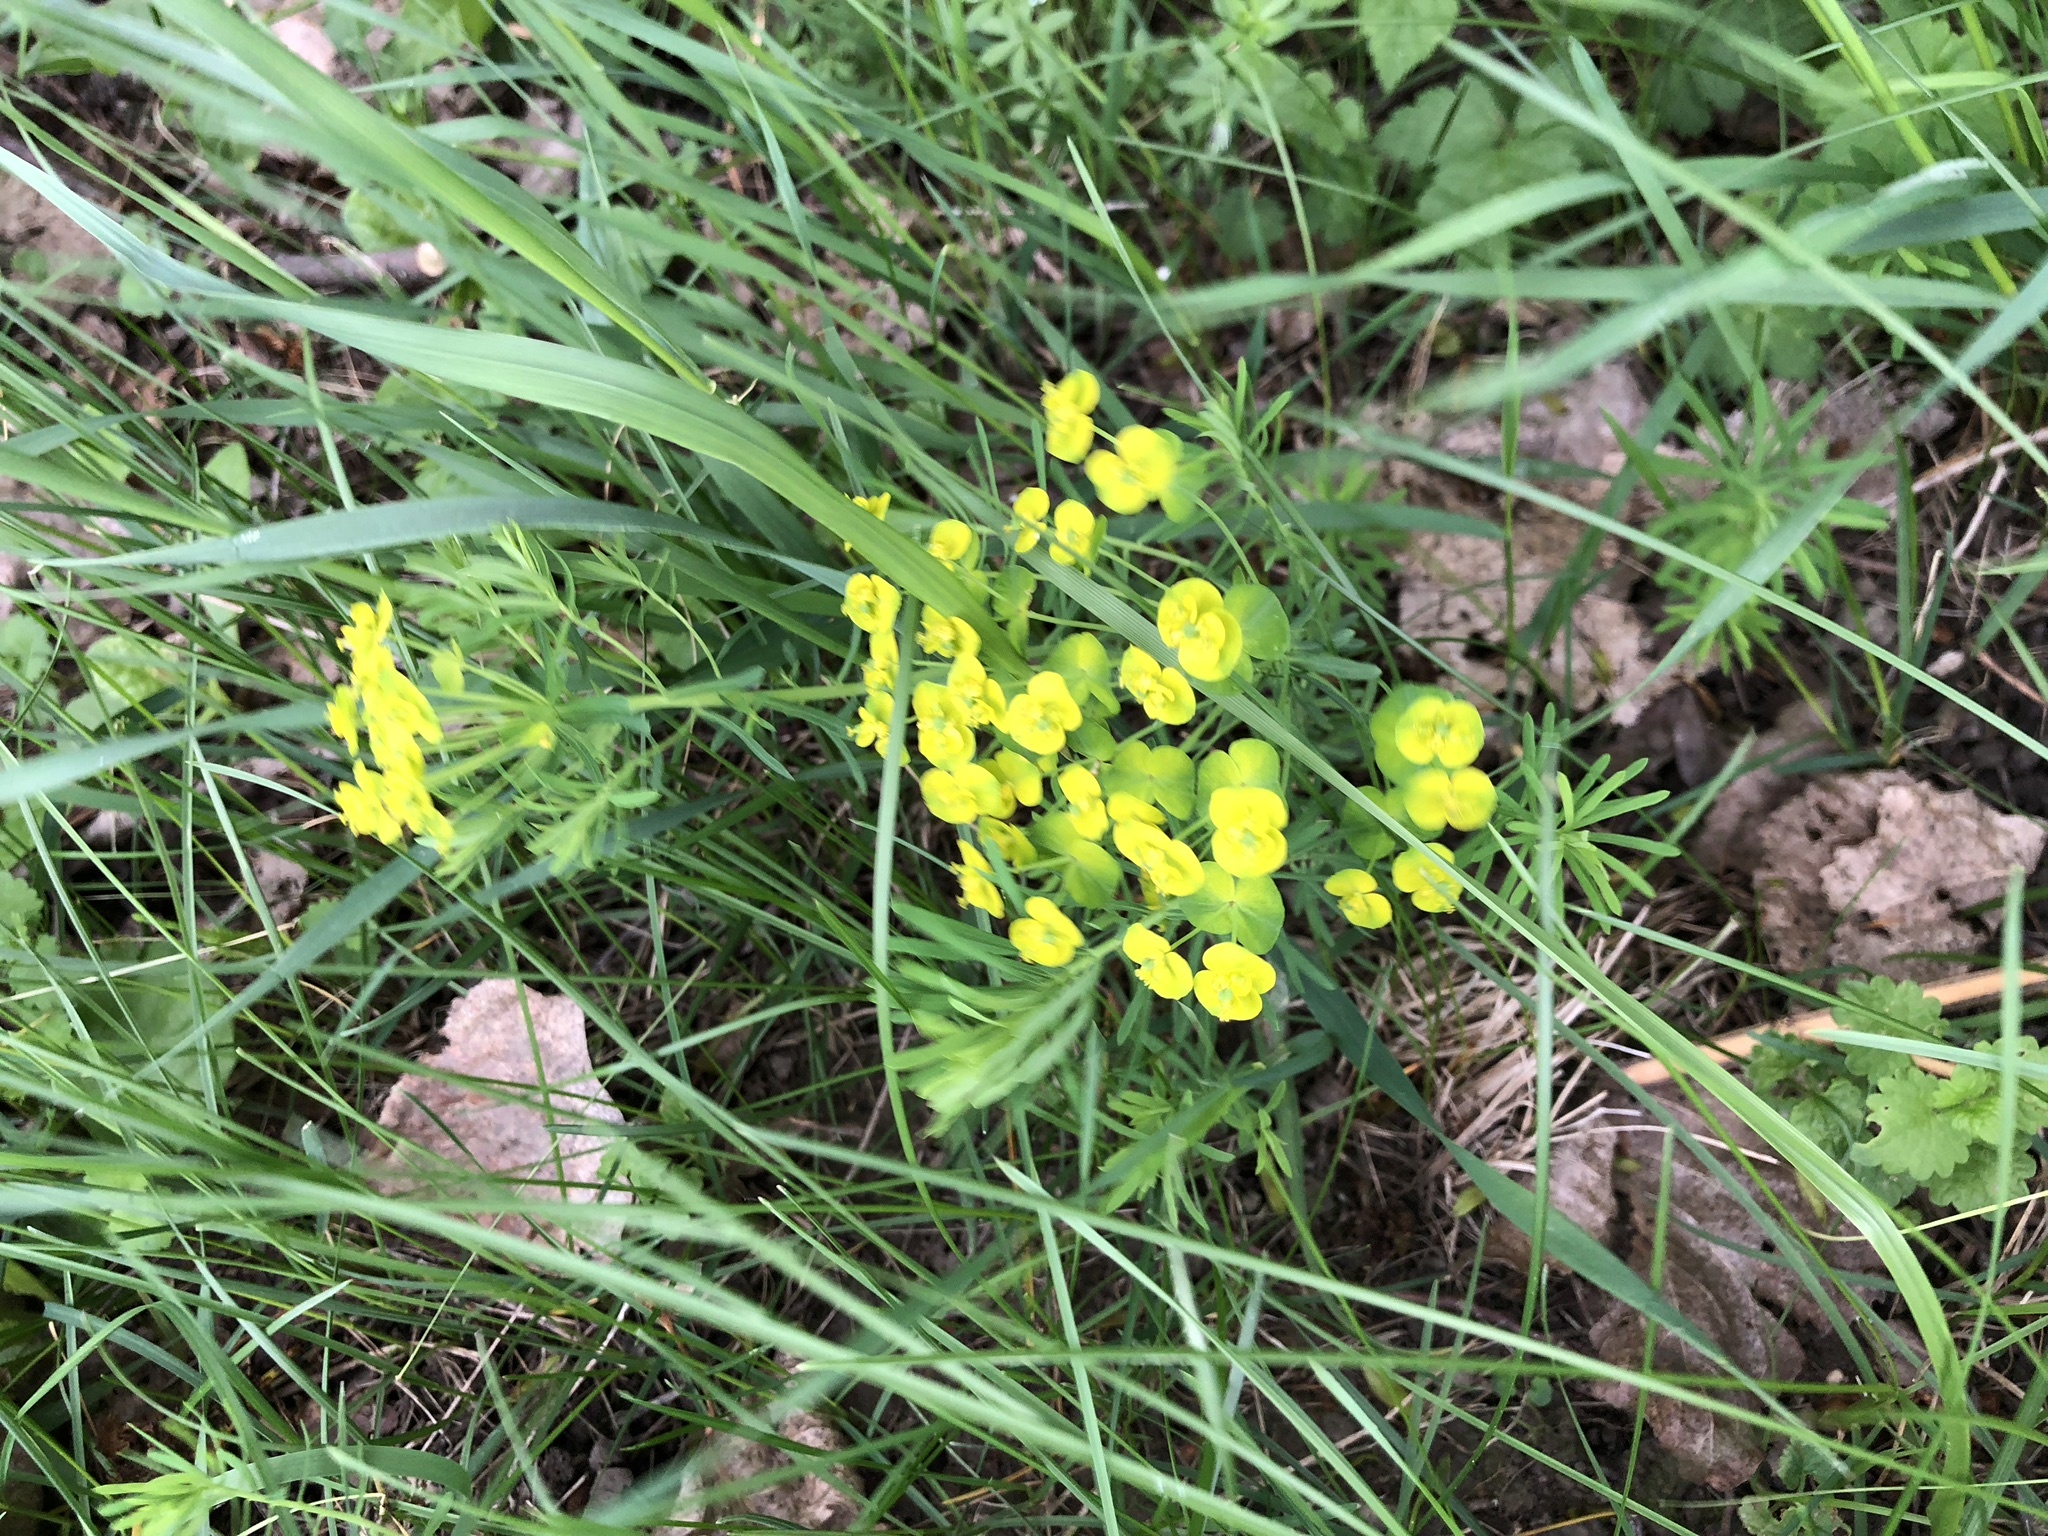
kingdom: Plantae
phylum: Tracheophyta
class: Magnoliopsida
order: Malpighiales
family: Euphorbiaceae
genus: Euphorbia
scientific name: Euphorbia cyparissias
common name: Cypress spurge
